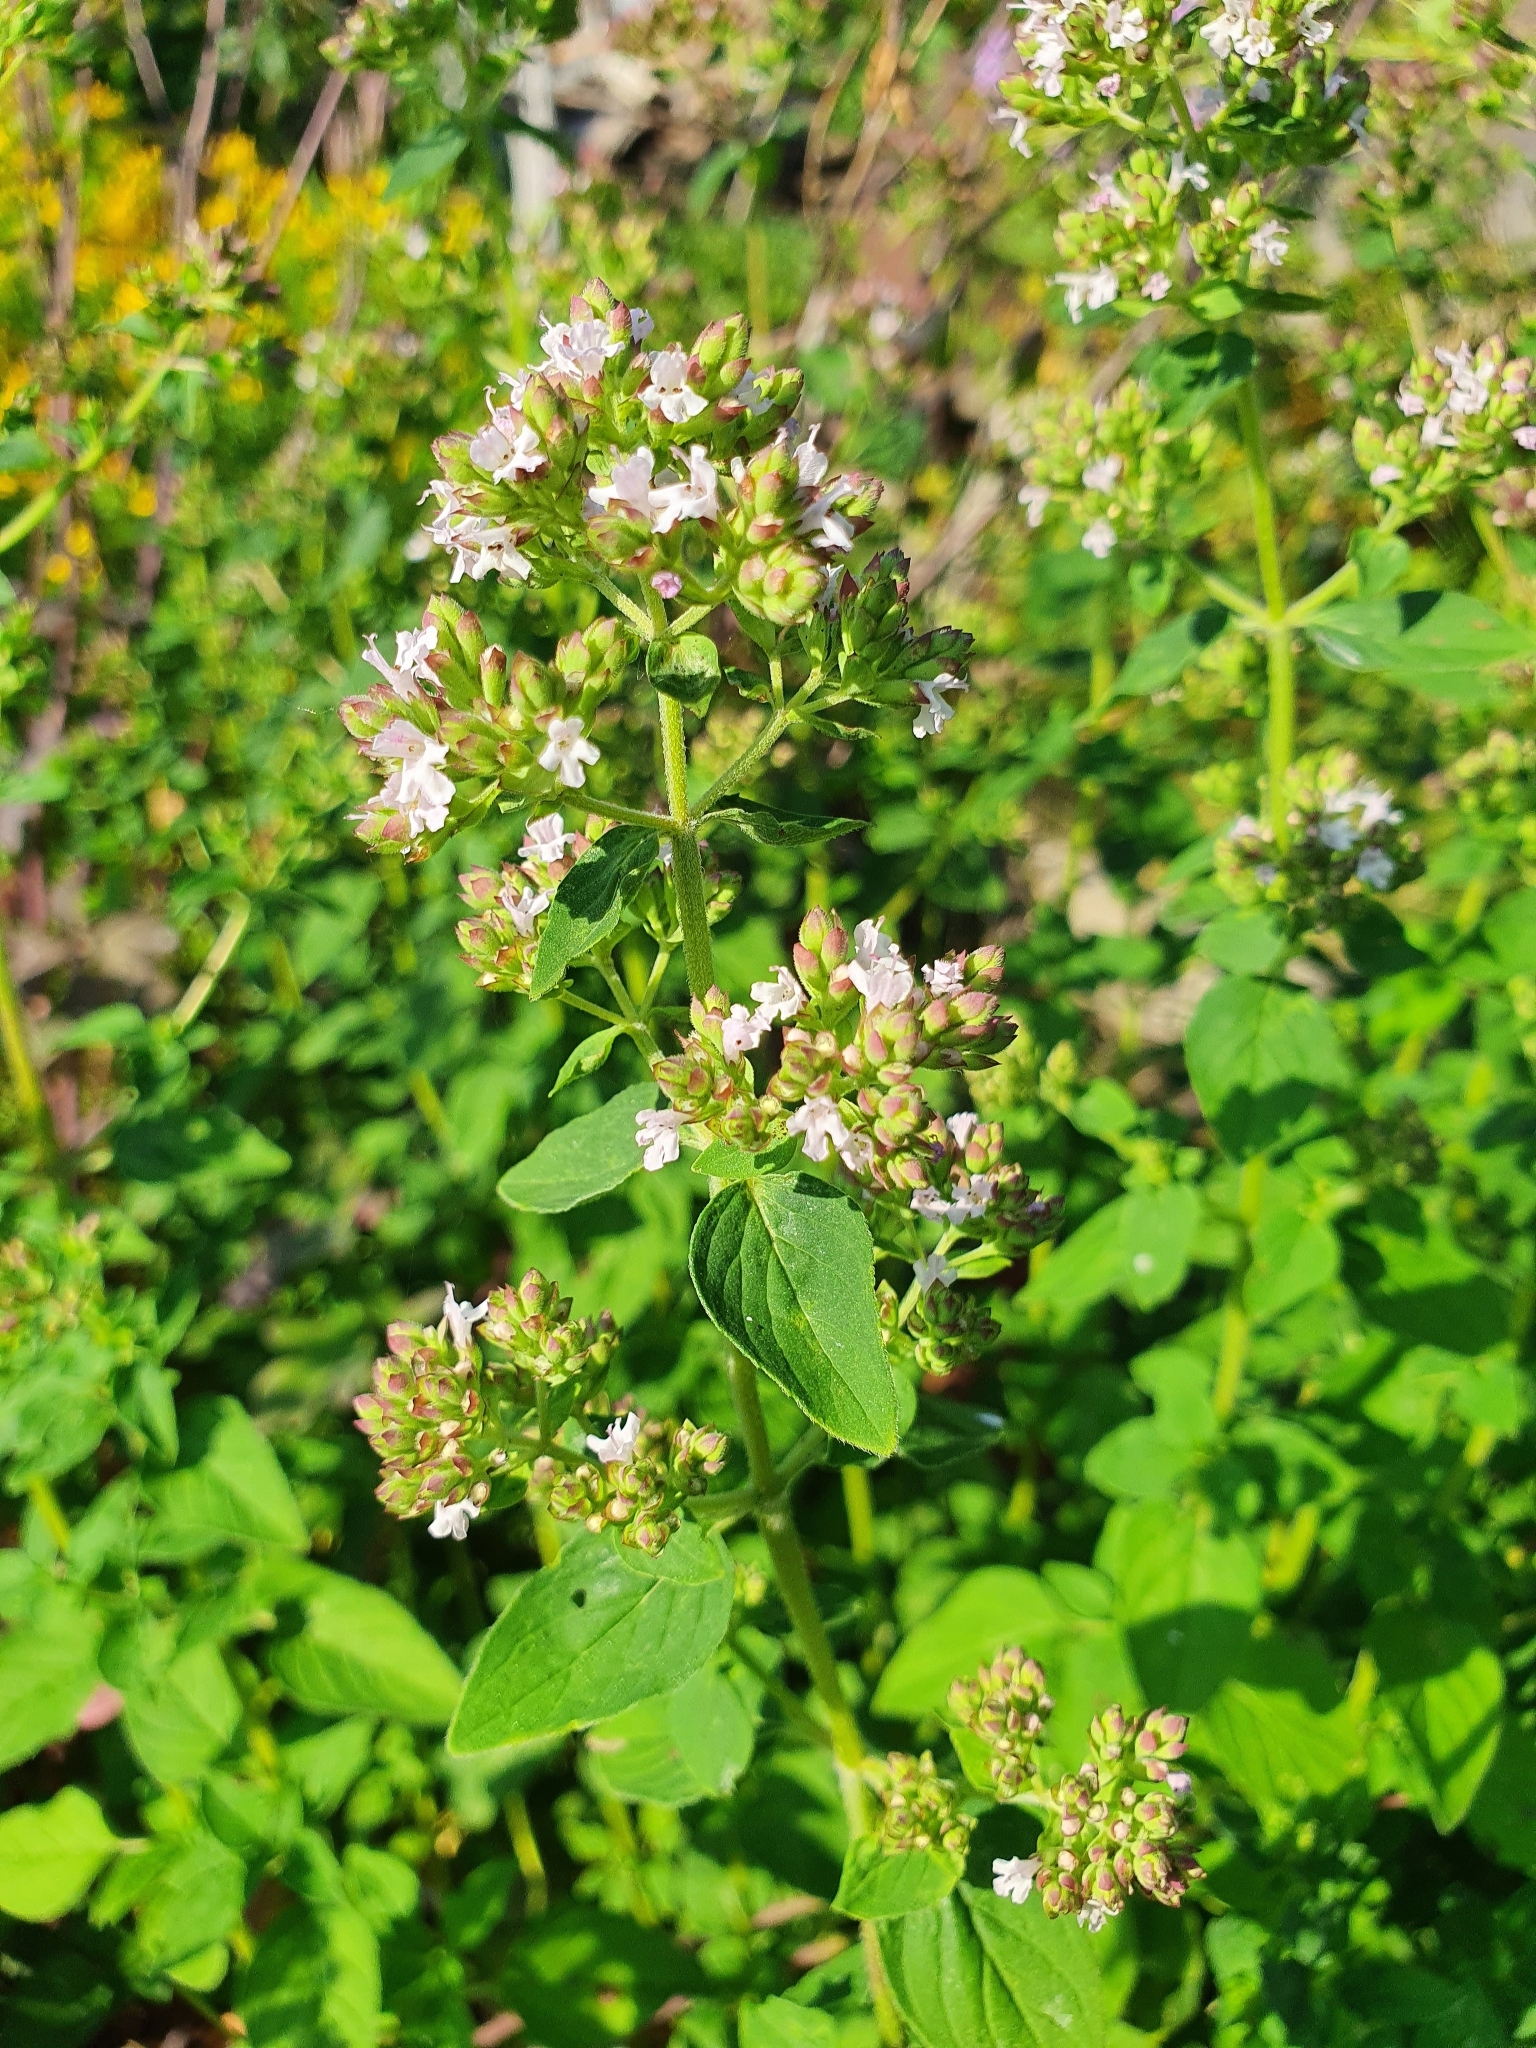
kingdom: Plantae
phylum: Tracheophyta
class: Magnoliopsida
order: Lamiales
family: Lamiaceae
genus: Origanum
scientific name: Origanum vulgare
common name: Wild marjoram
